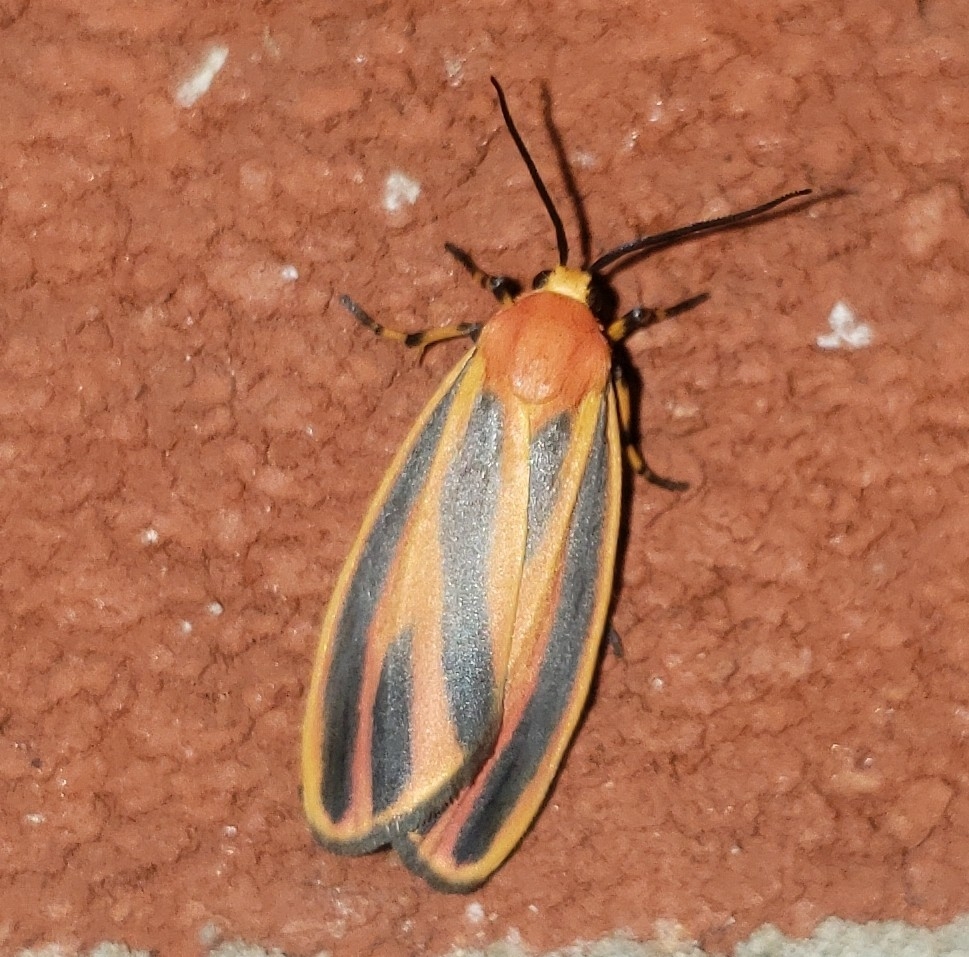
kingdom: Animalia
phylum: Arthropoda
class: Insecta
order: Lepidoptera
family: Erebidae
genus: Hypoprepia
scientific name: Hypoprepia fucosa
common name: Painted lichen moth
